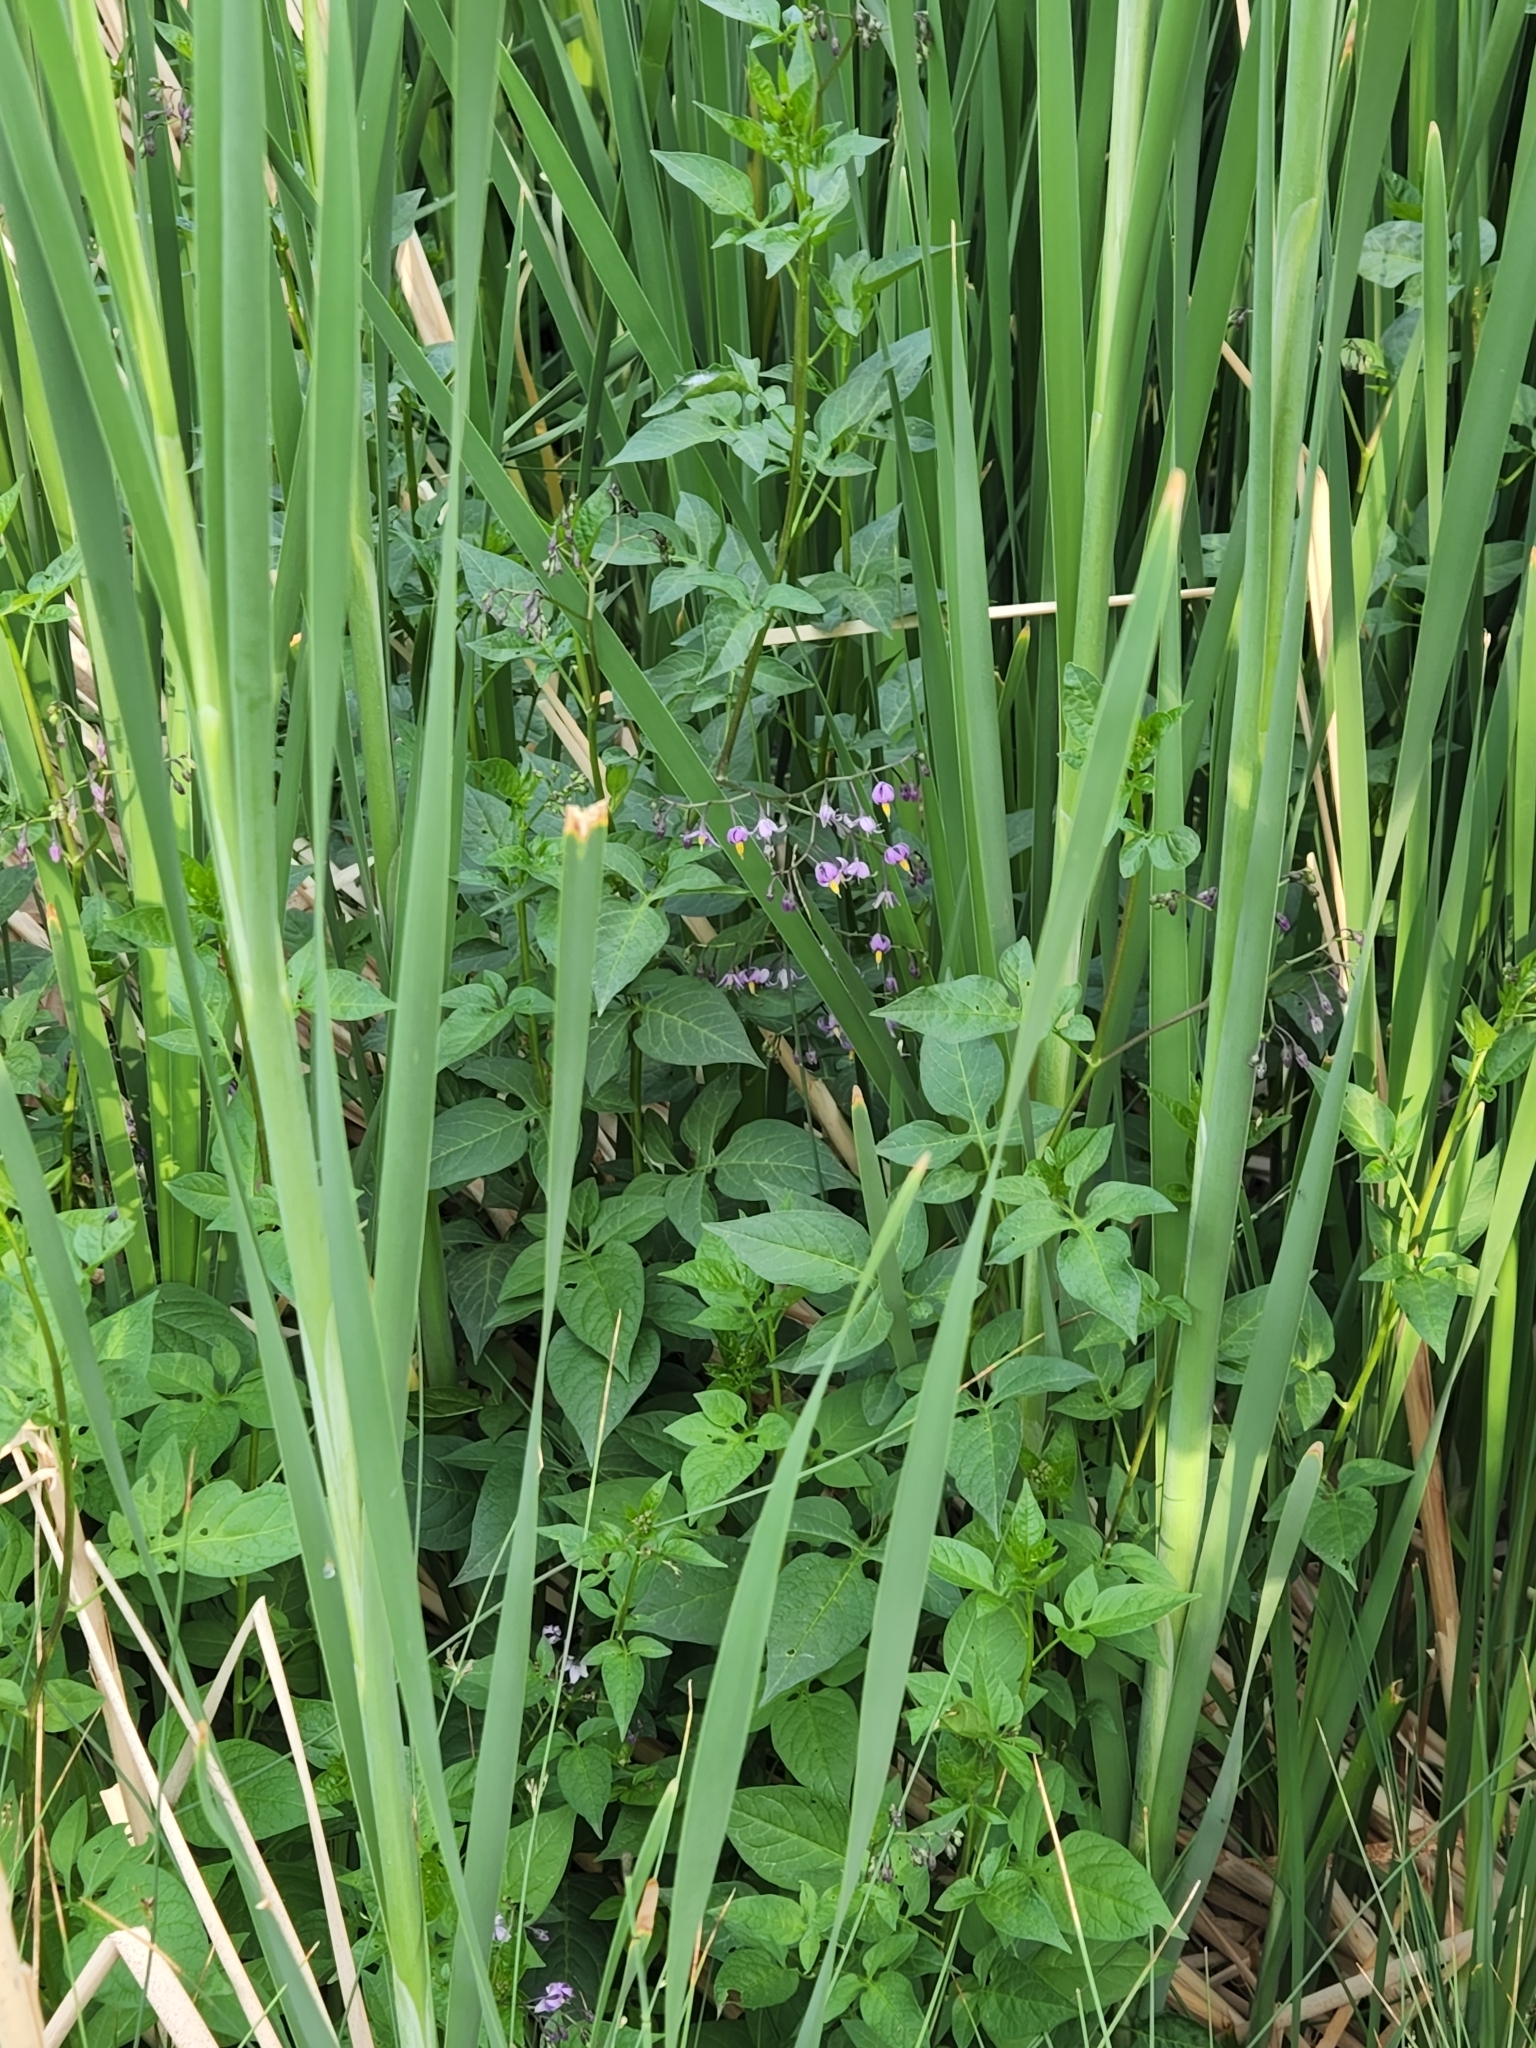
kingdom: Plantae
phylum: Tracheophyta
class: Magnoliopsida
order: Solanales
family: Solanaceae
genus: Solanum
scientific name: Solanum dulcamara
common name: Climbing nightshade
